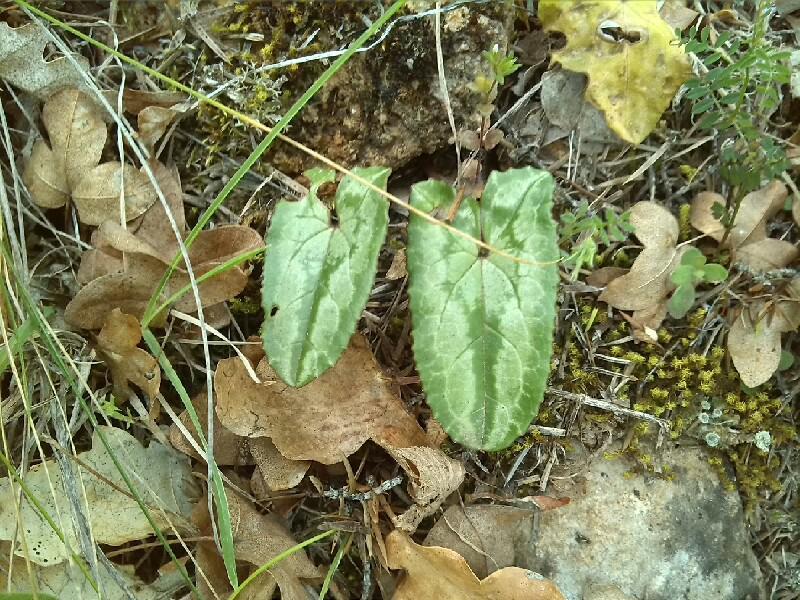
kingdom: Plantae
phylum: Tracheophyta
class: Magnoliopsida
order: Ericales
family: Primulaceae
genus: Cyclamen
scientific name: Cyclamen hederifolium
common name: Sowbread
